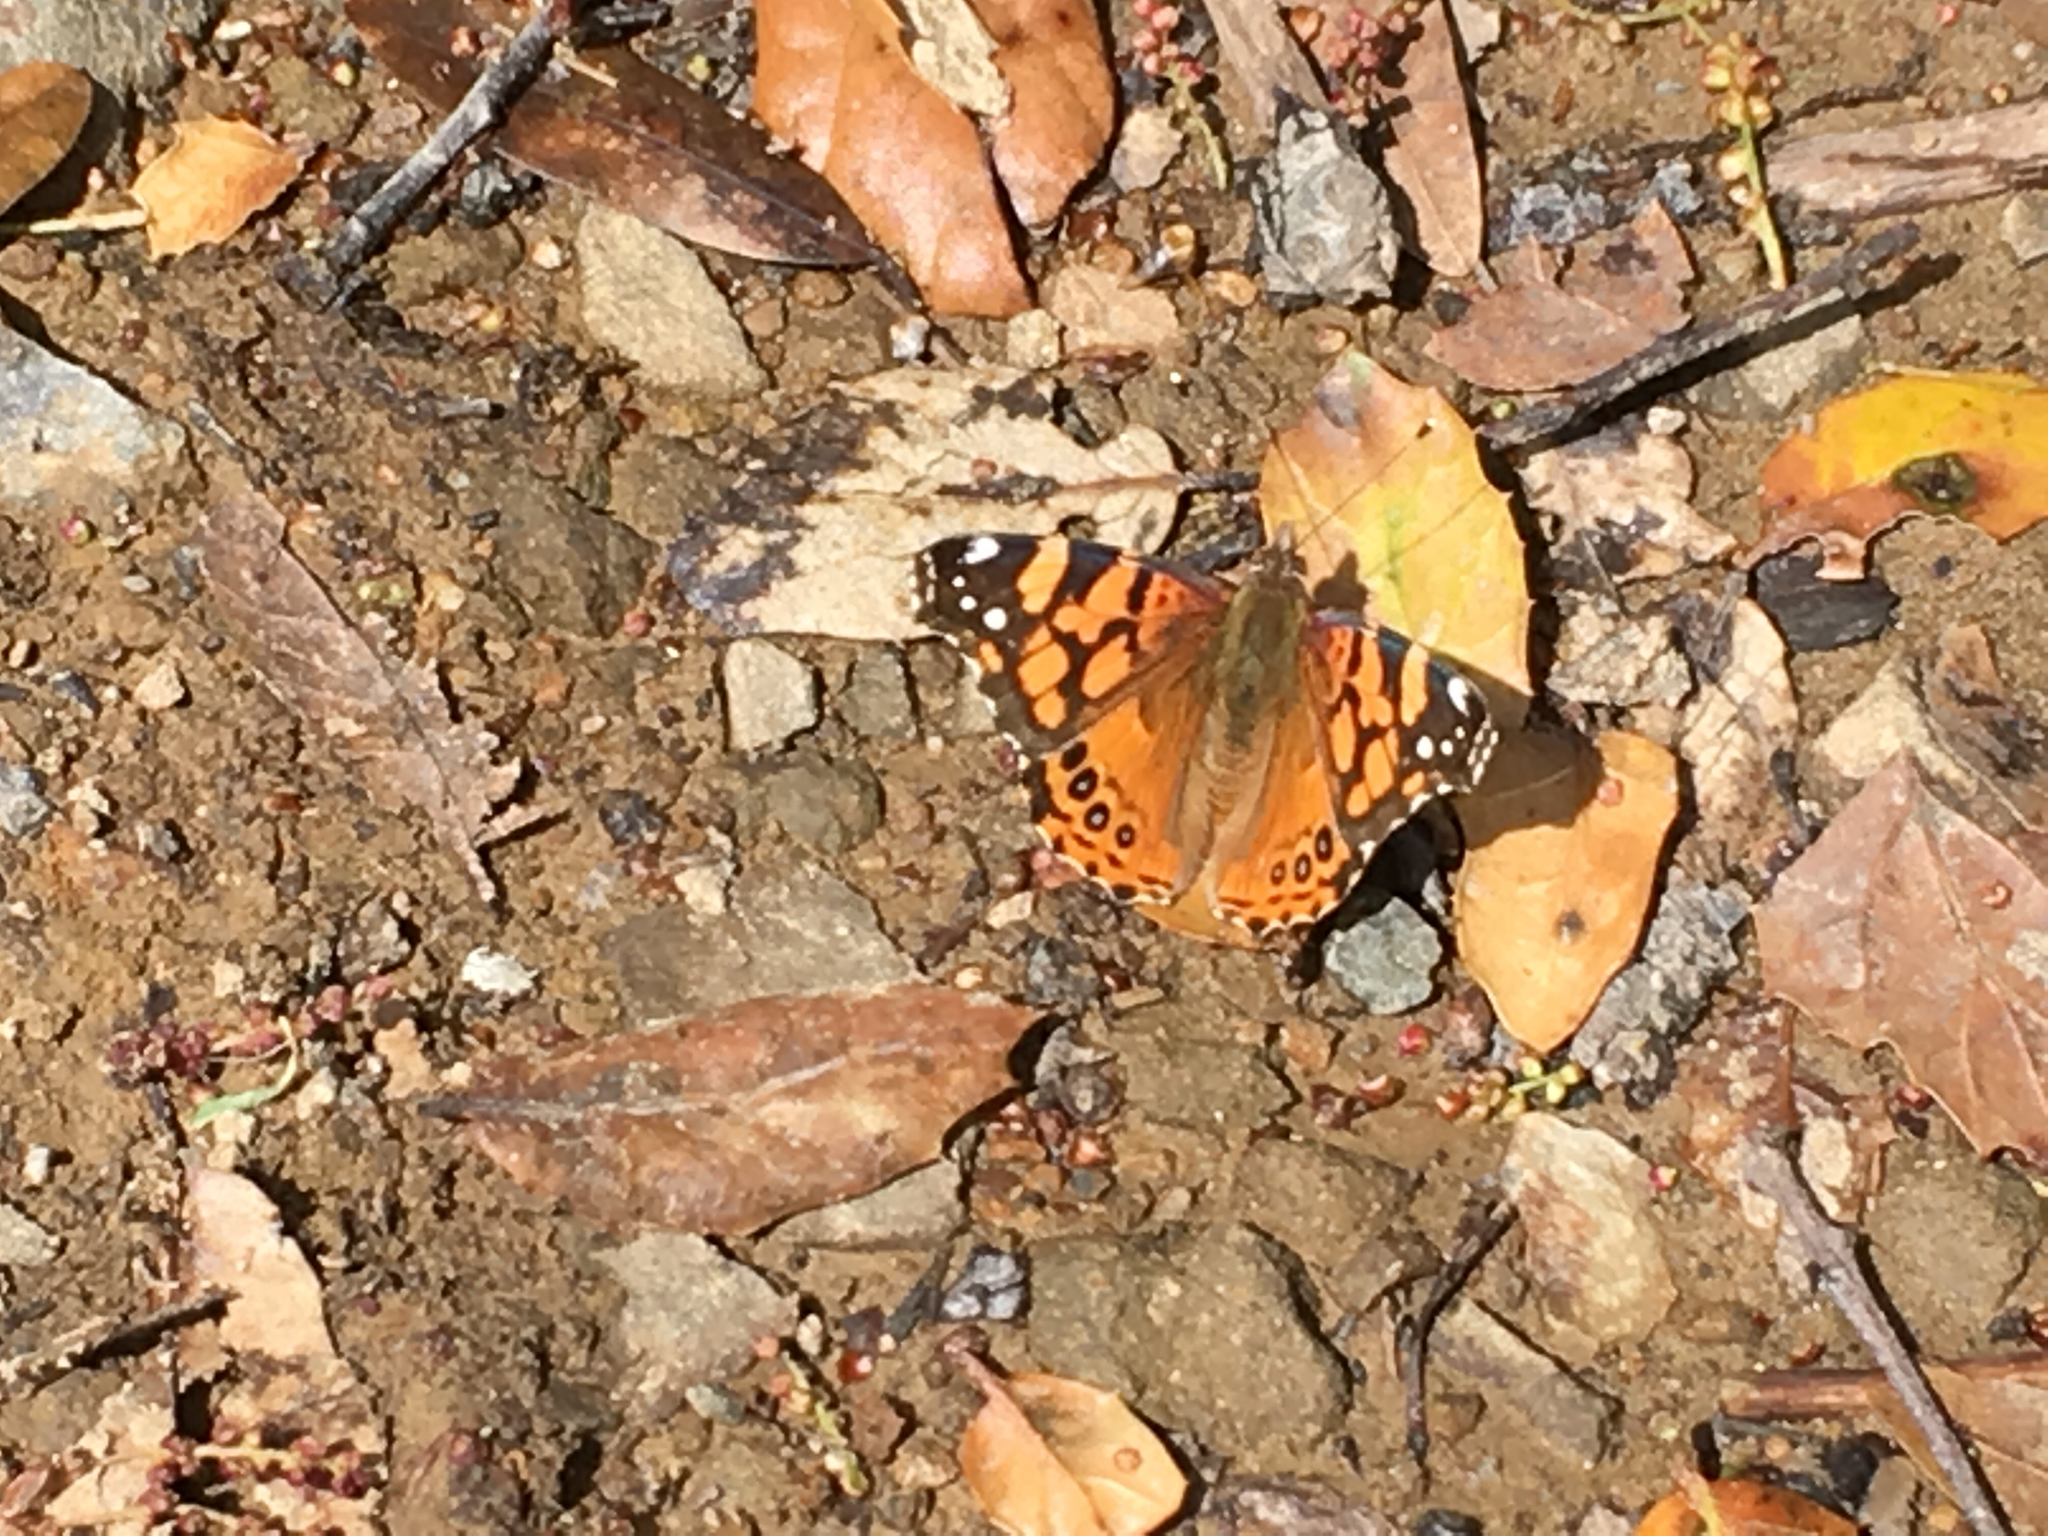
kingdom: Animalia
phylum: Arthropoda
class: Insecta
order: Lepidoptera
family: Nymphalidae
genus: Vanessa
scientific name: Vanessa annabella
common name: West coast lady
